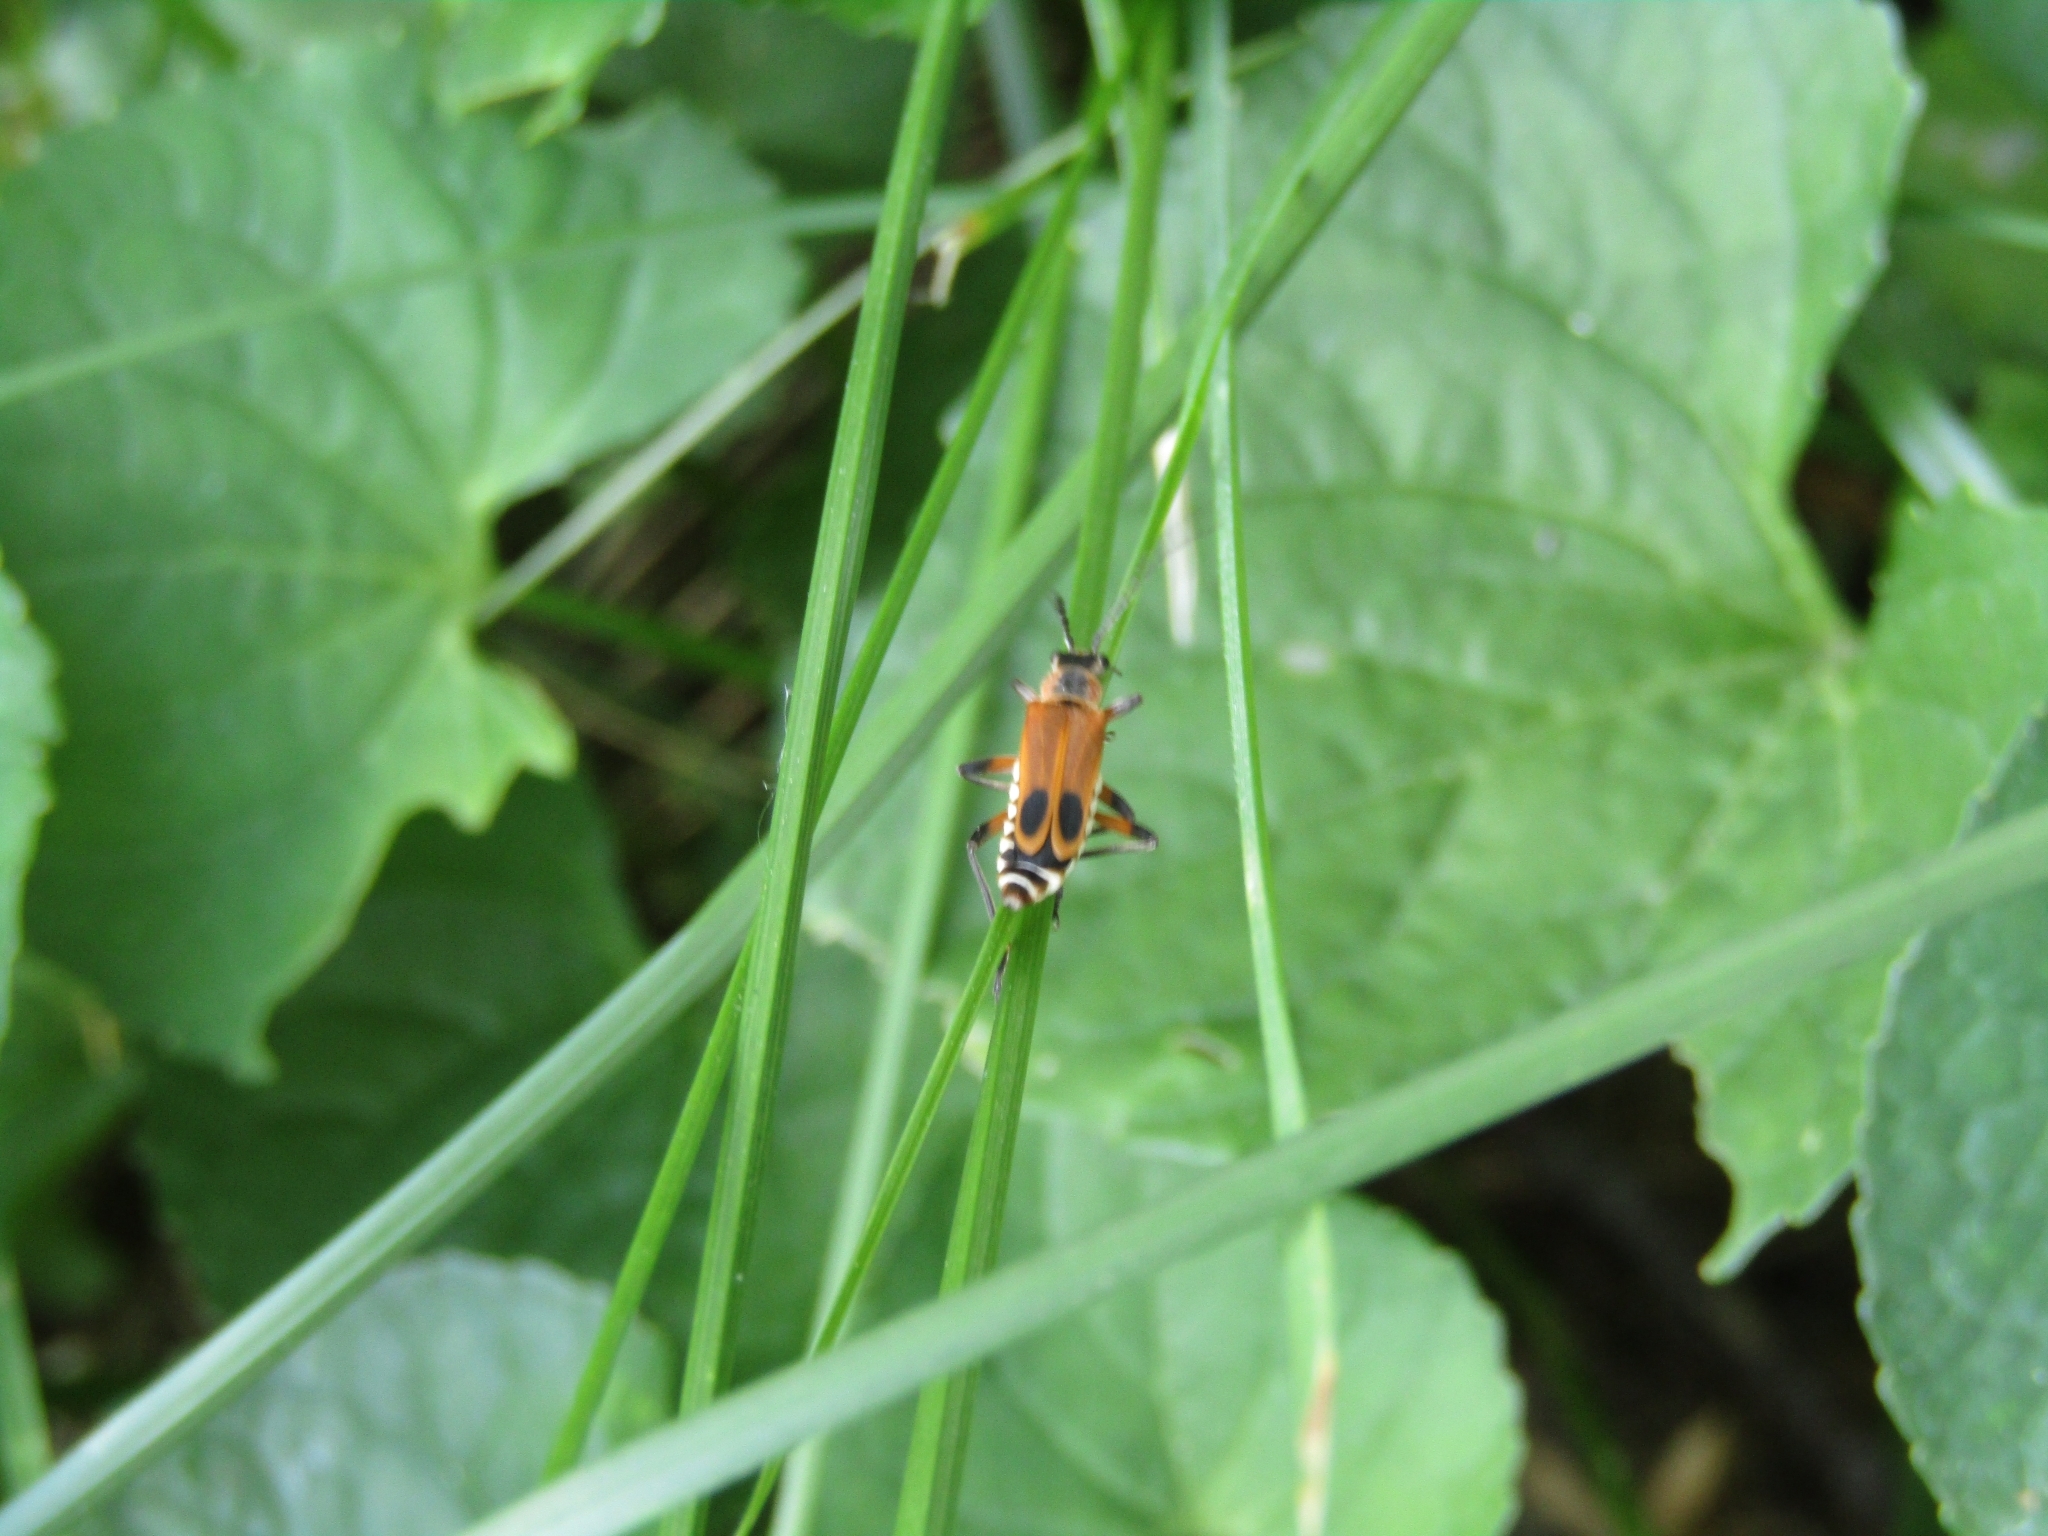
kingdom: Animalia
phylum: Arthropoda
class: Insecta
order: Coleoptera
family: Cantharidae
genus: Chauliognathus
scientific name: Chauliognathus marginatus
